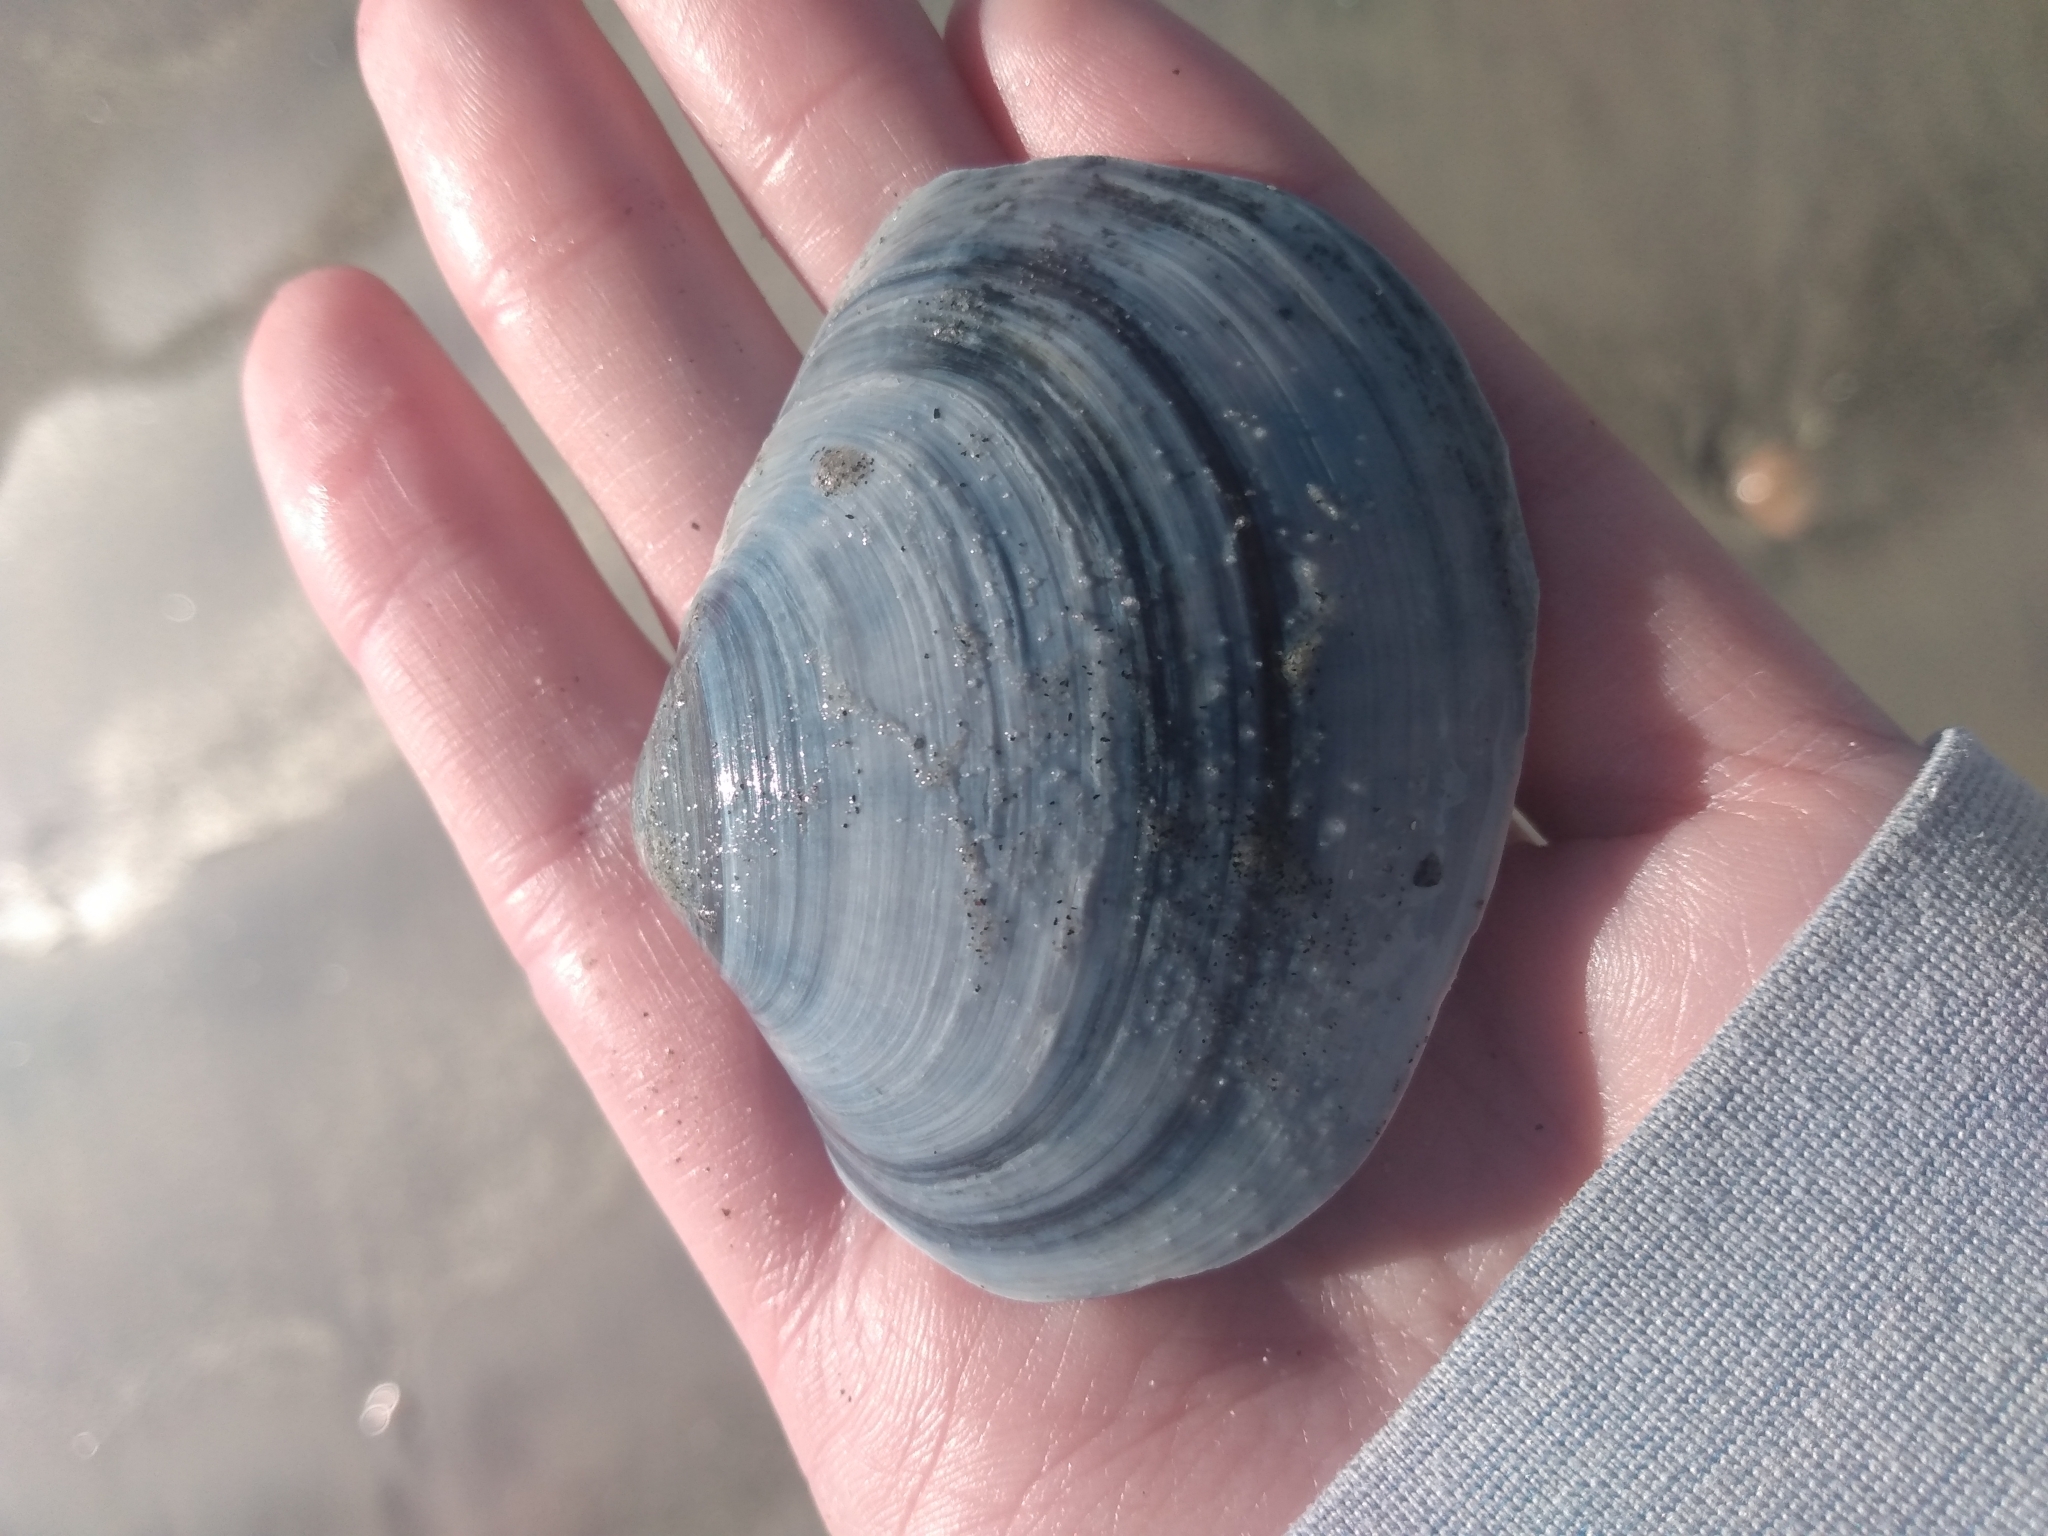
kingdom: Animalia
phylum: Mollusca
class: Bivalvia
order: Venerida
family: Mactridae
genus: Mactromeris
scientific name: Mactromeris catilliformis
